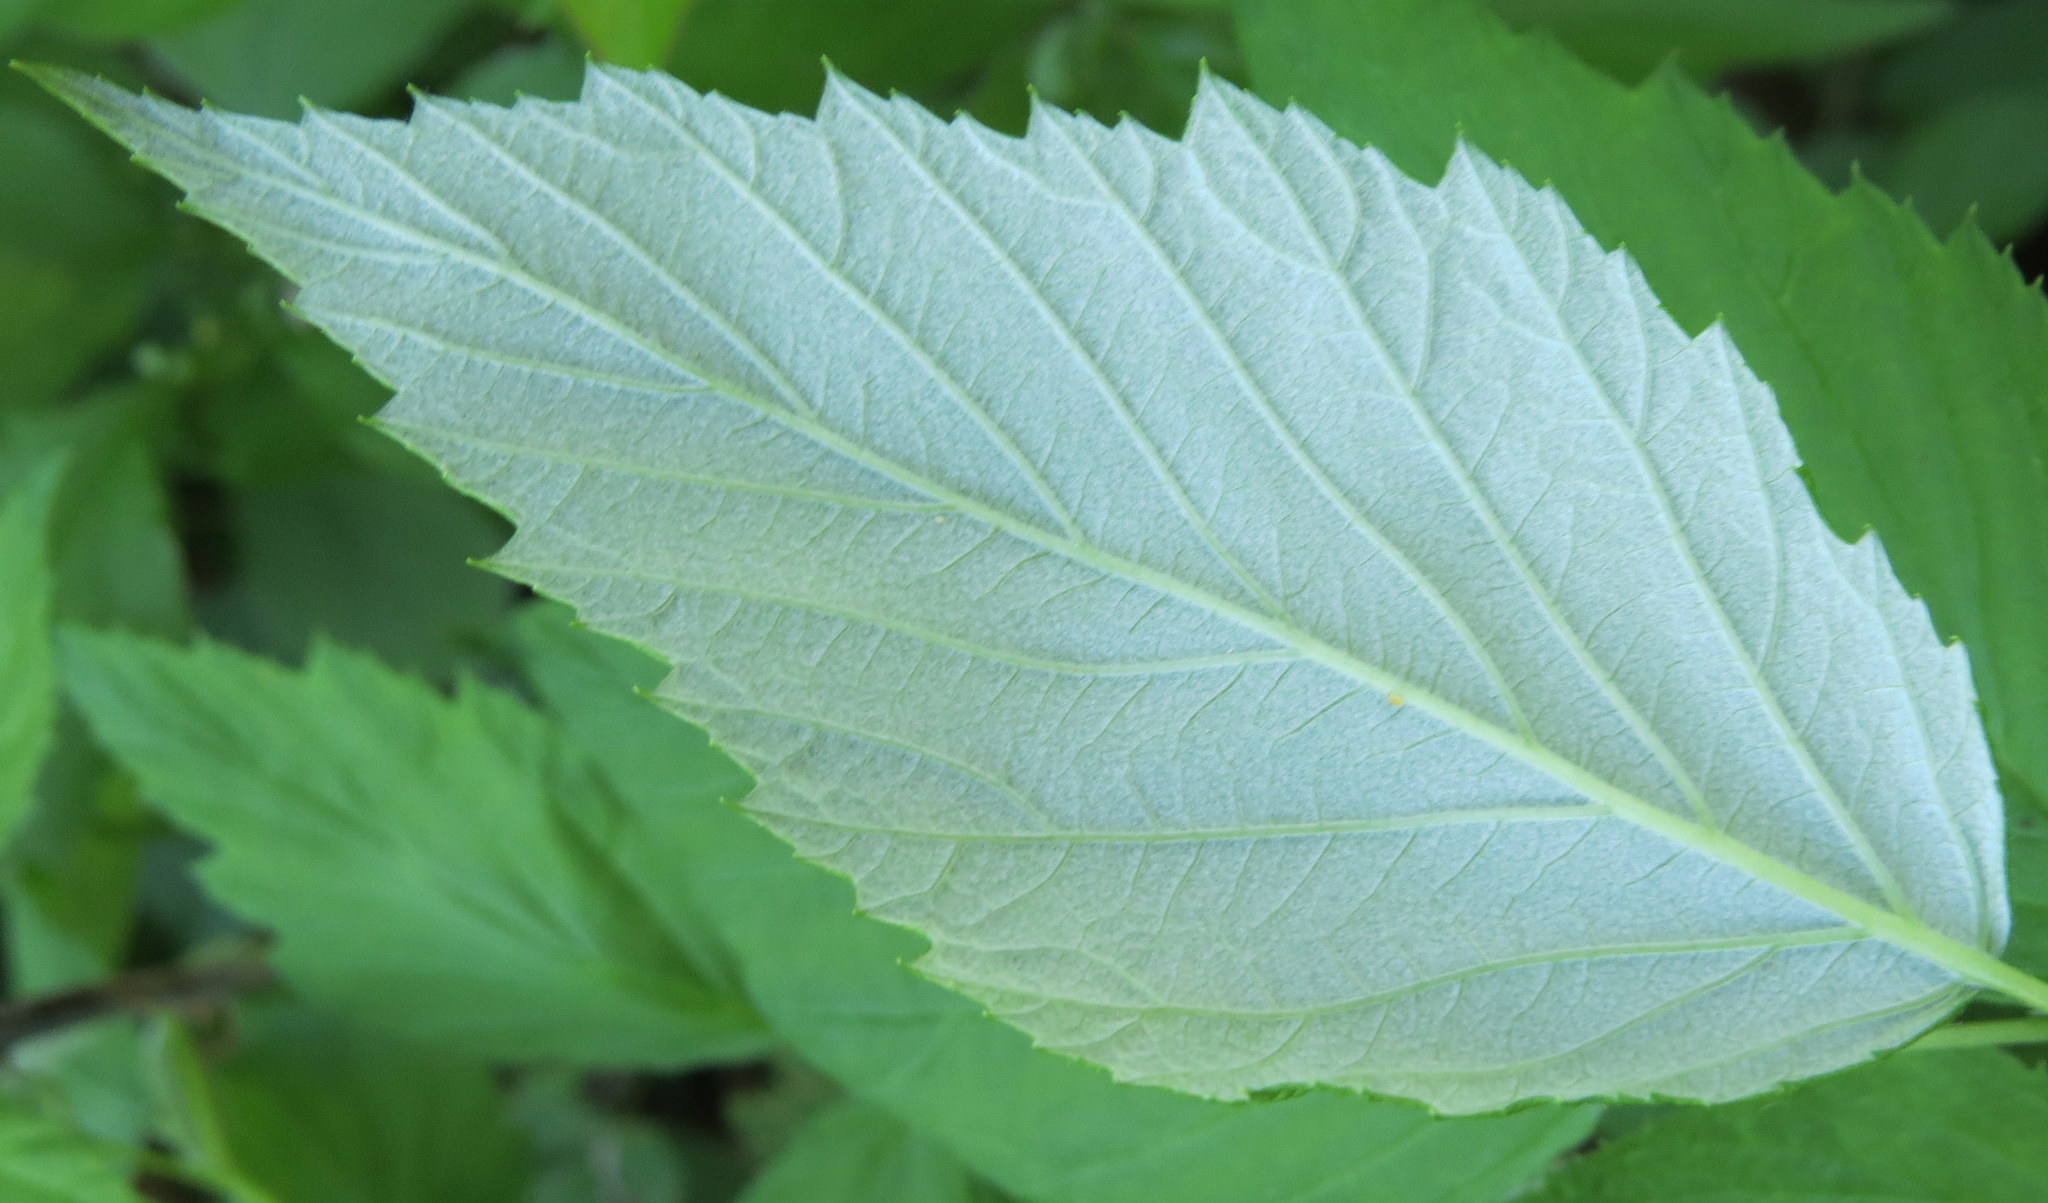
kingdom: Plantae
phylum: Tracheophyta
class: Magnoliopsida
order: Rosales
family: Rosaceae
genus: Rubus
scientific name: Rubus occidentalis
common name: Black raspberry
